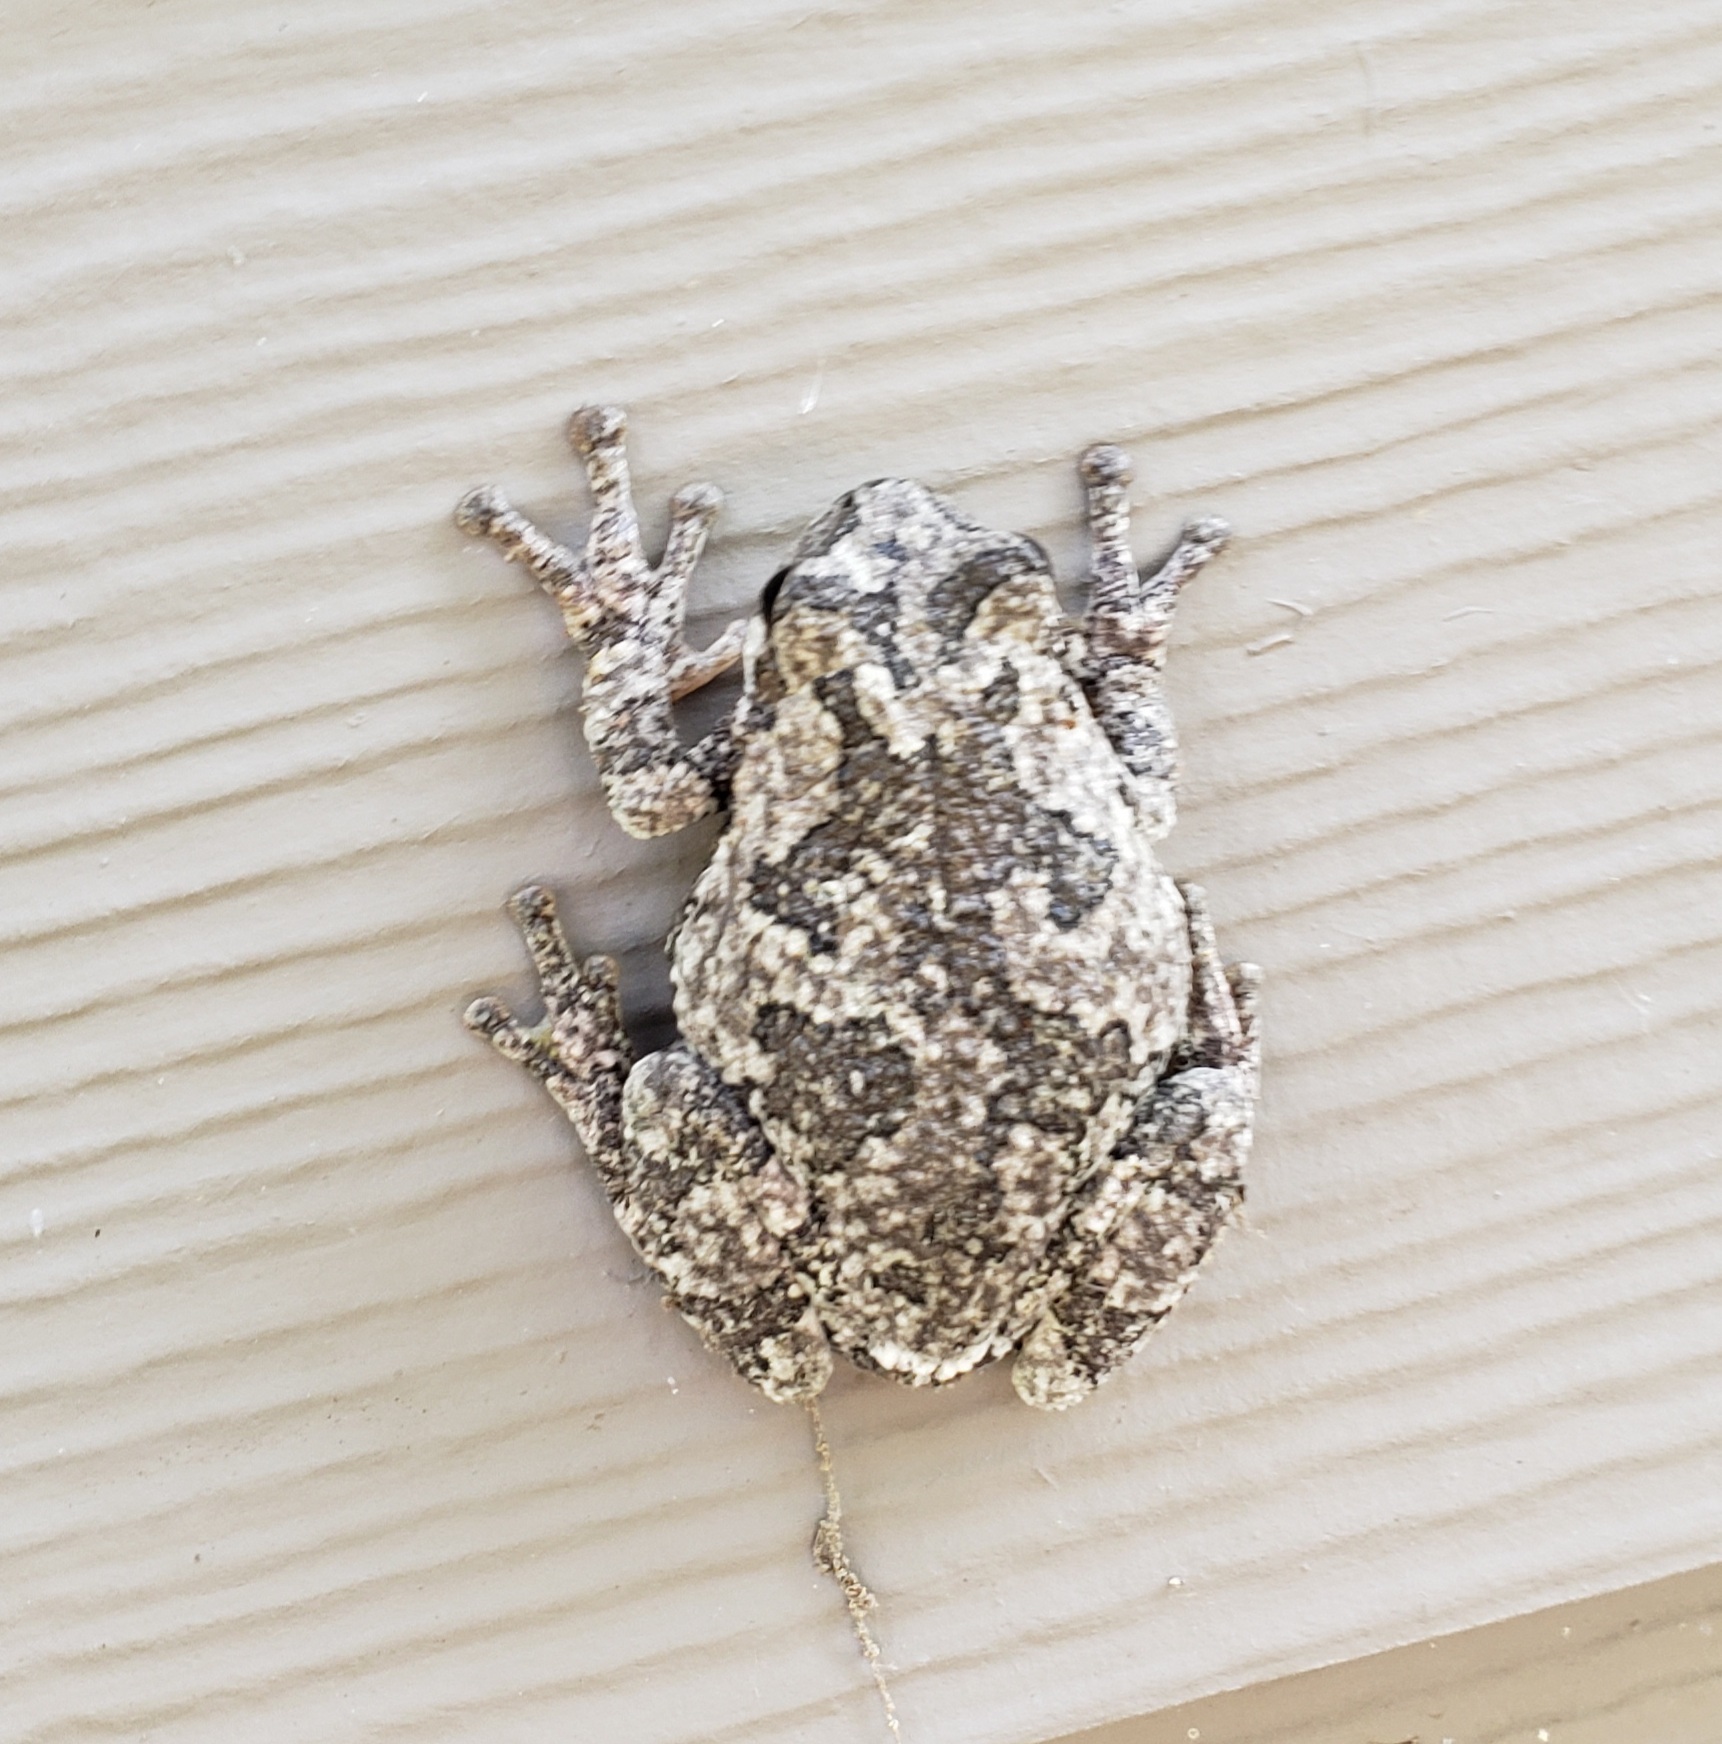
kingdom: Animalia
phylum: Chordata
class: Amphibia
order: Anura
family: Hylidae
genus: Hyla
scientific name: Hyla
